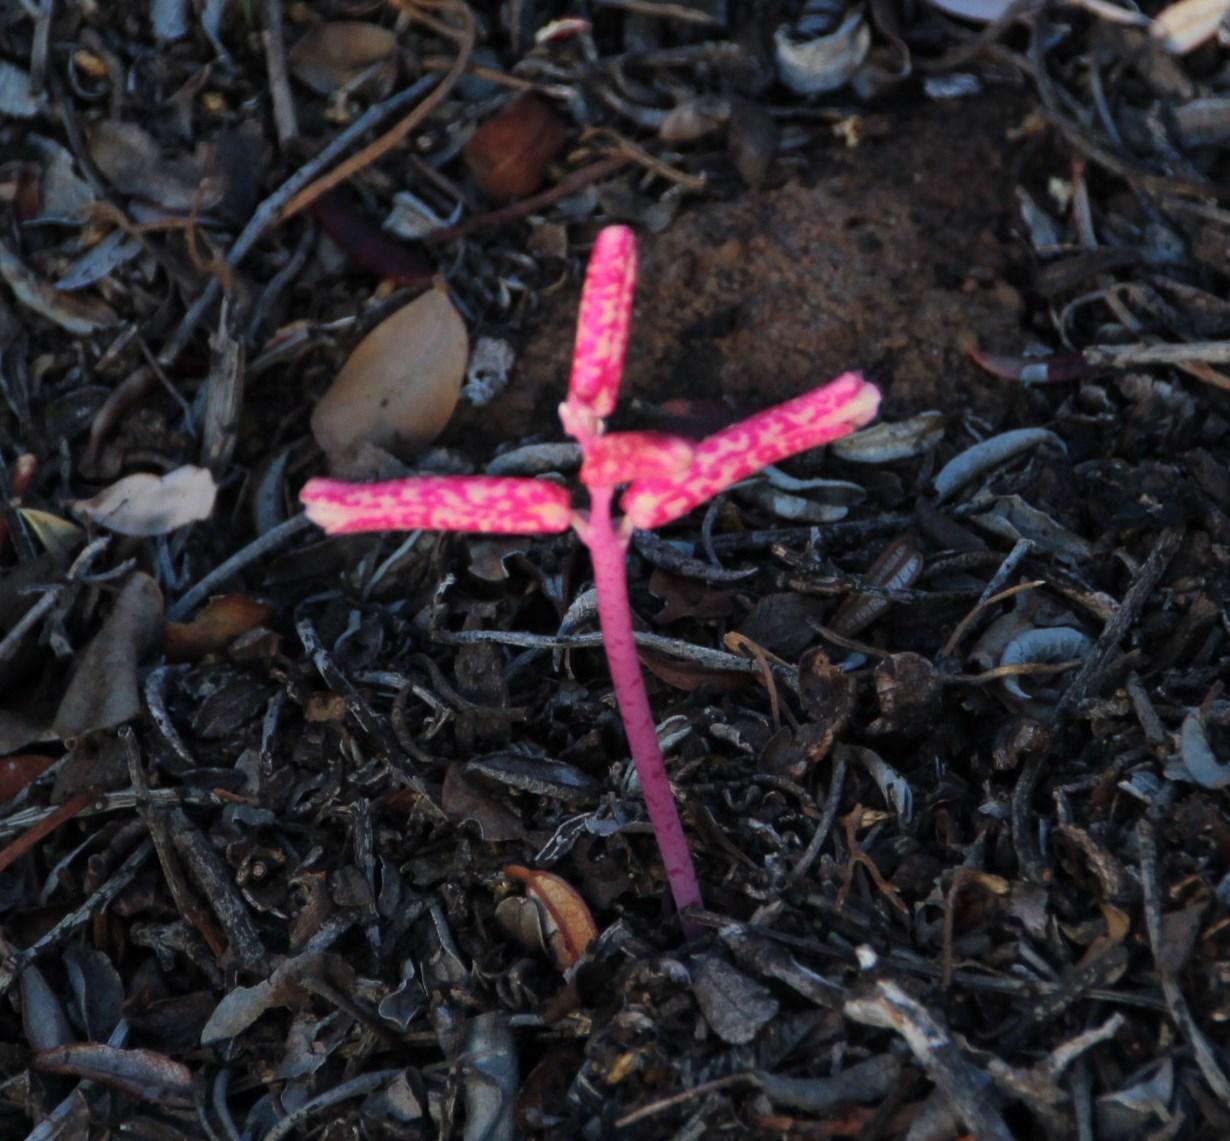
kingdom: Plantae
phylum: Tracheophyta
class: Liliopsida
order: Asparagales
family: Asparagaceae
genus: Lachenalia
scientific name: Lachenalia punctata
